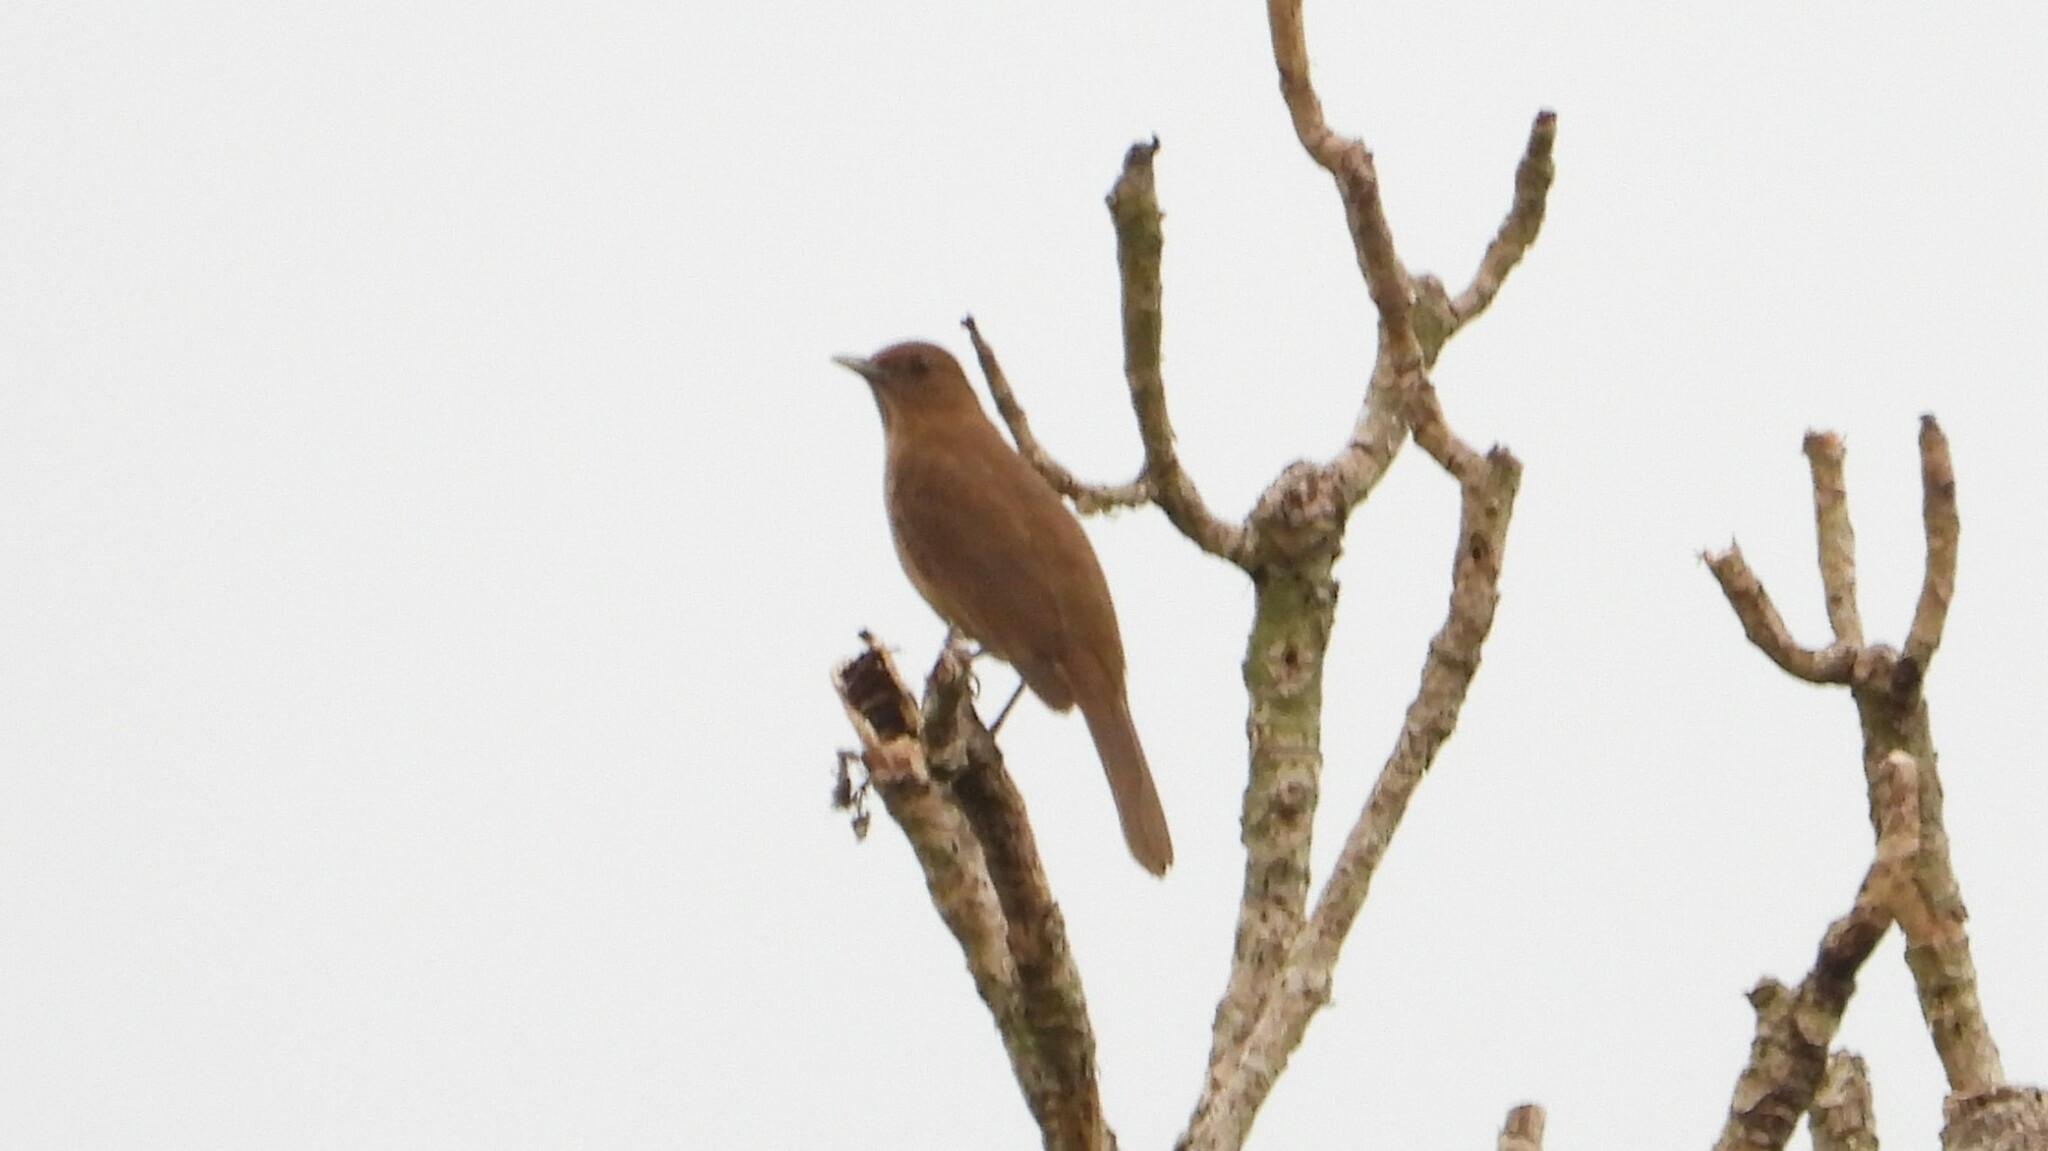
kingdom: Animalia
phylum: Chordata
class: Aves
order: Passeriformes
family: Turdidae
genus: Turdus
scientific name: Turdus grayi
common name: Clay-colored thrush
